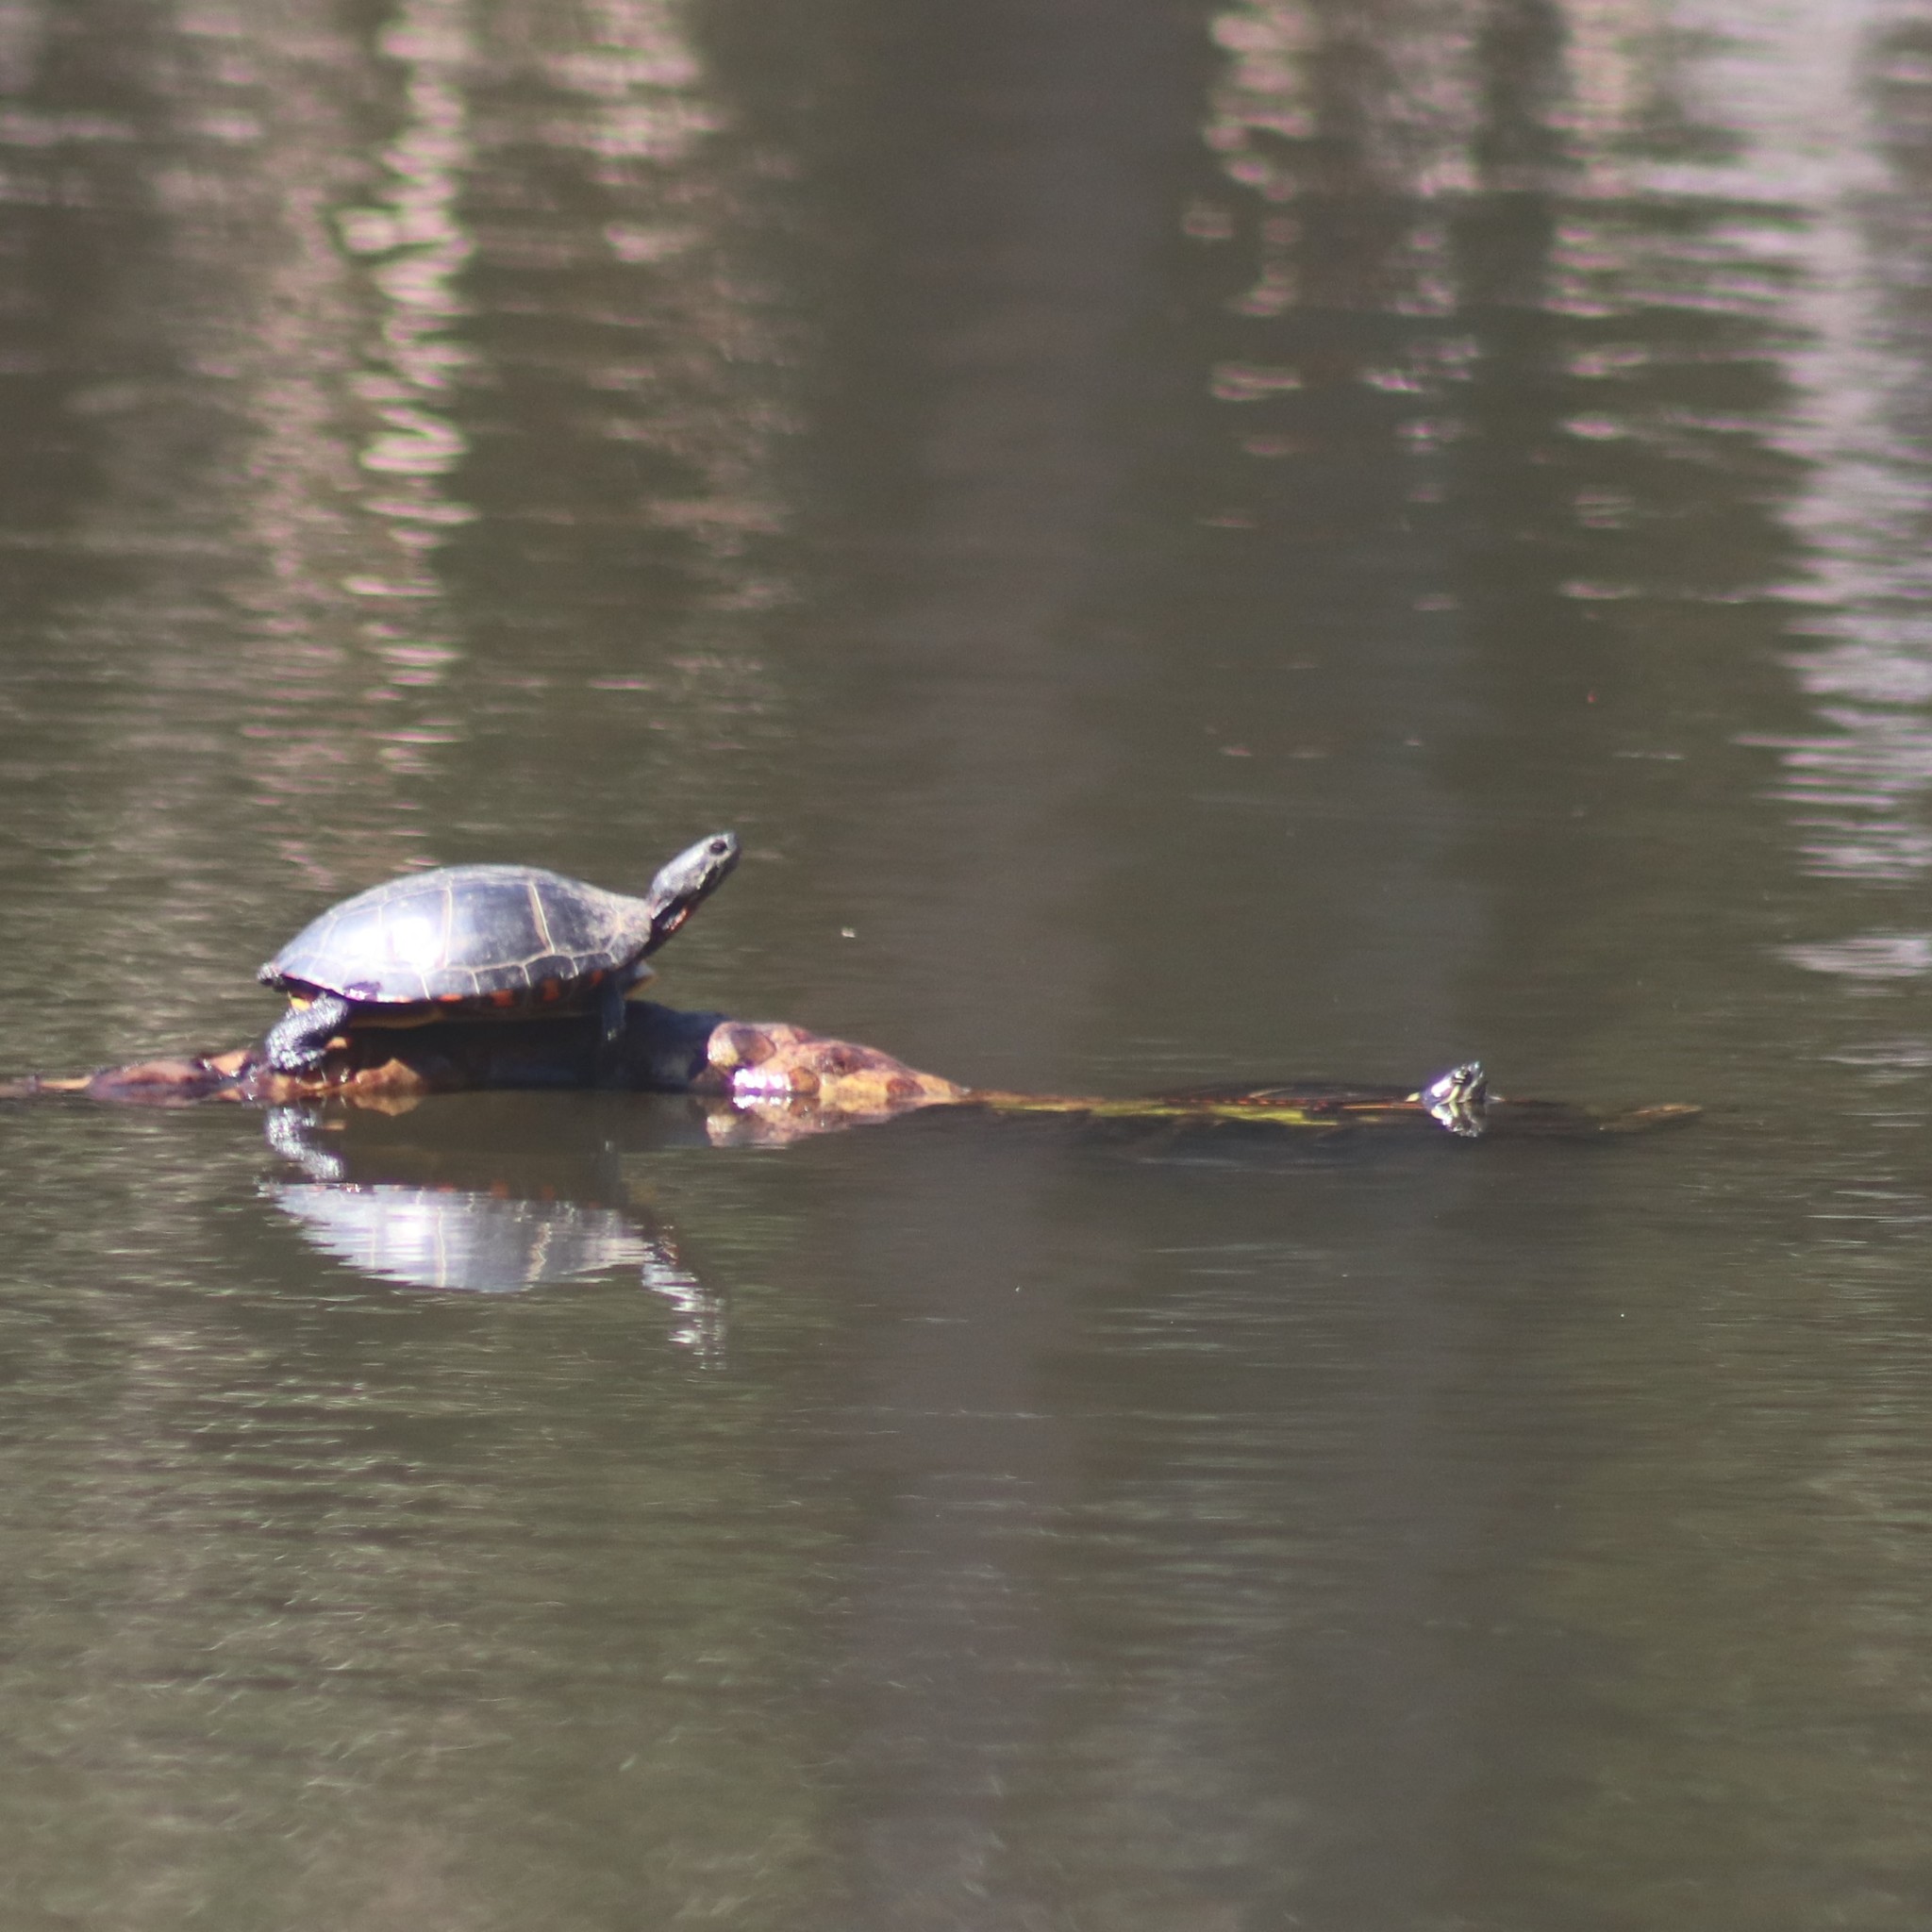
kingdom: Animalia
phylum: Chordata
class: Testudines
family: Emydidae
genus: Chrysemys
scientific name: Chrysemys picta
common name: Painted turtle
